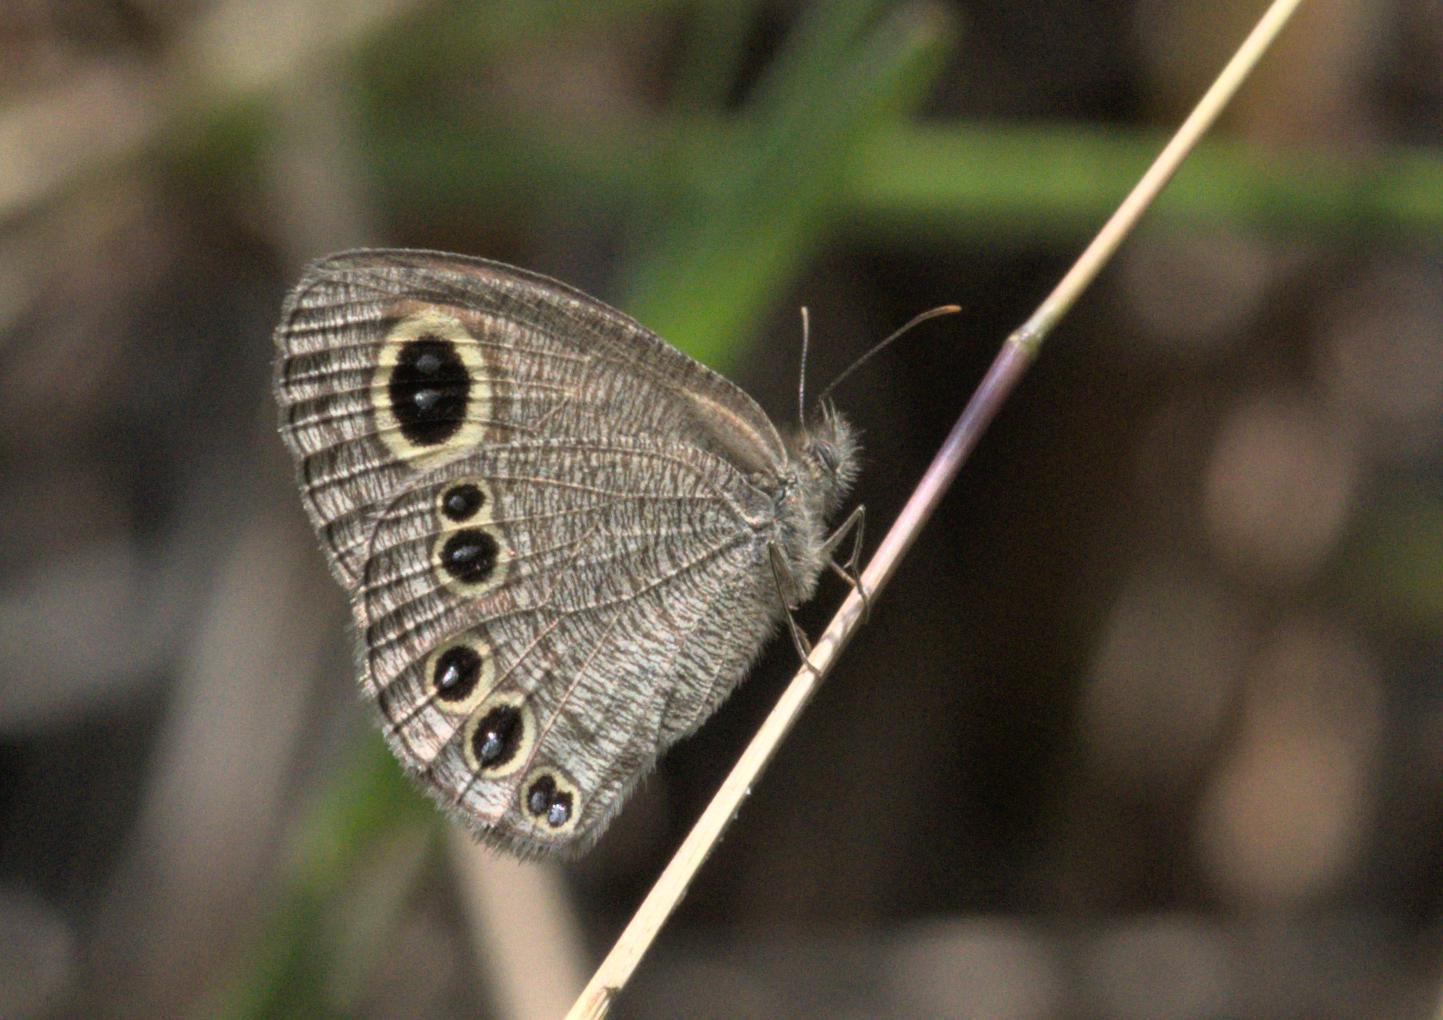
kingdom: Animalia
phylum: Arthropoda
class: Insecta
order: Lepidoptera
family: Nymphalidae
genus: Ypthima
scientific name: Ypthima avanta
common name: Jewel five-ring
